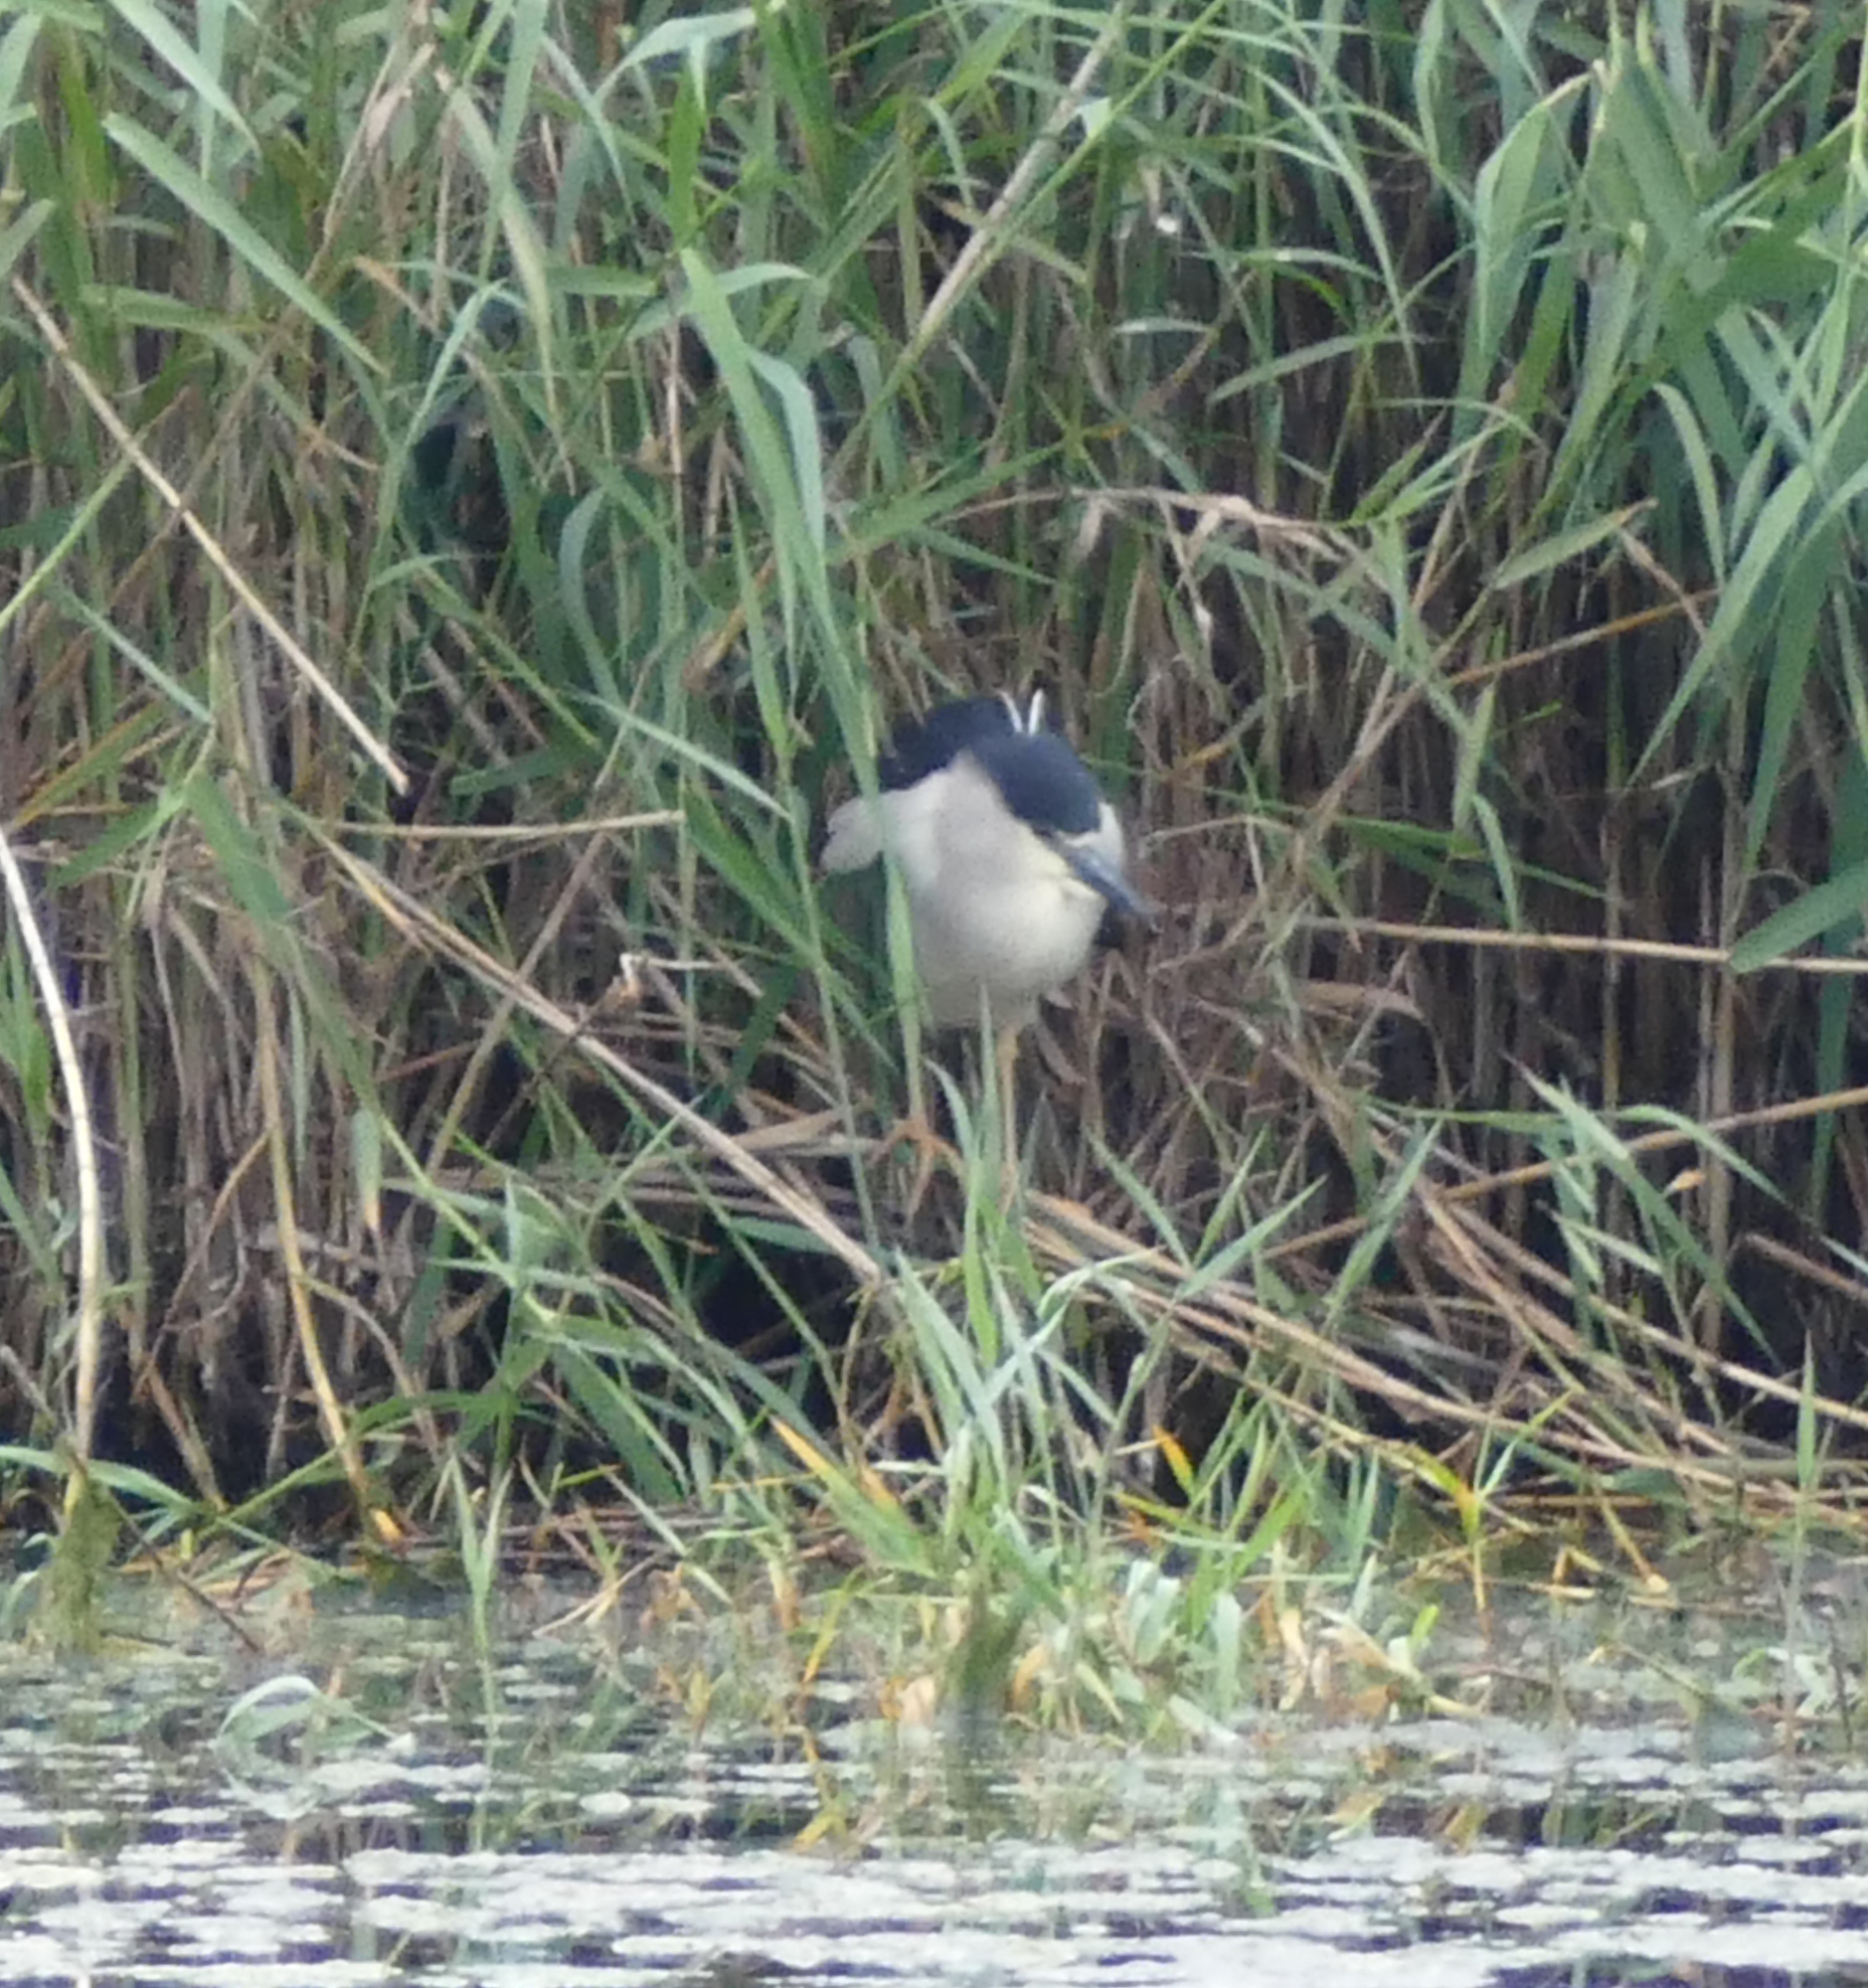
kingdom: Animalia
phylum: Chordata
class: Aves
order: Pelecaniformes
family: Ardeidae
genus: Nycticorax
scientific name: Nycticorax nycticorax
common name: Black-crowned night heron
